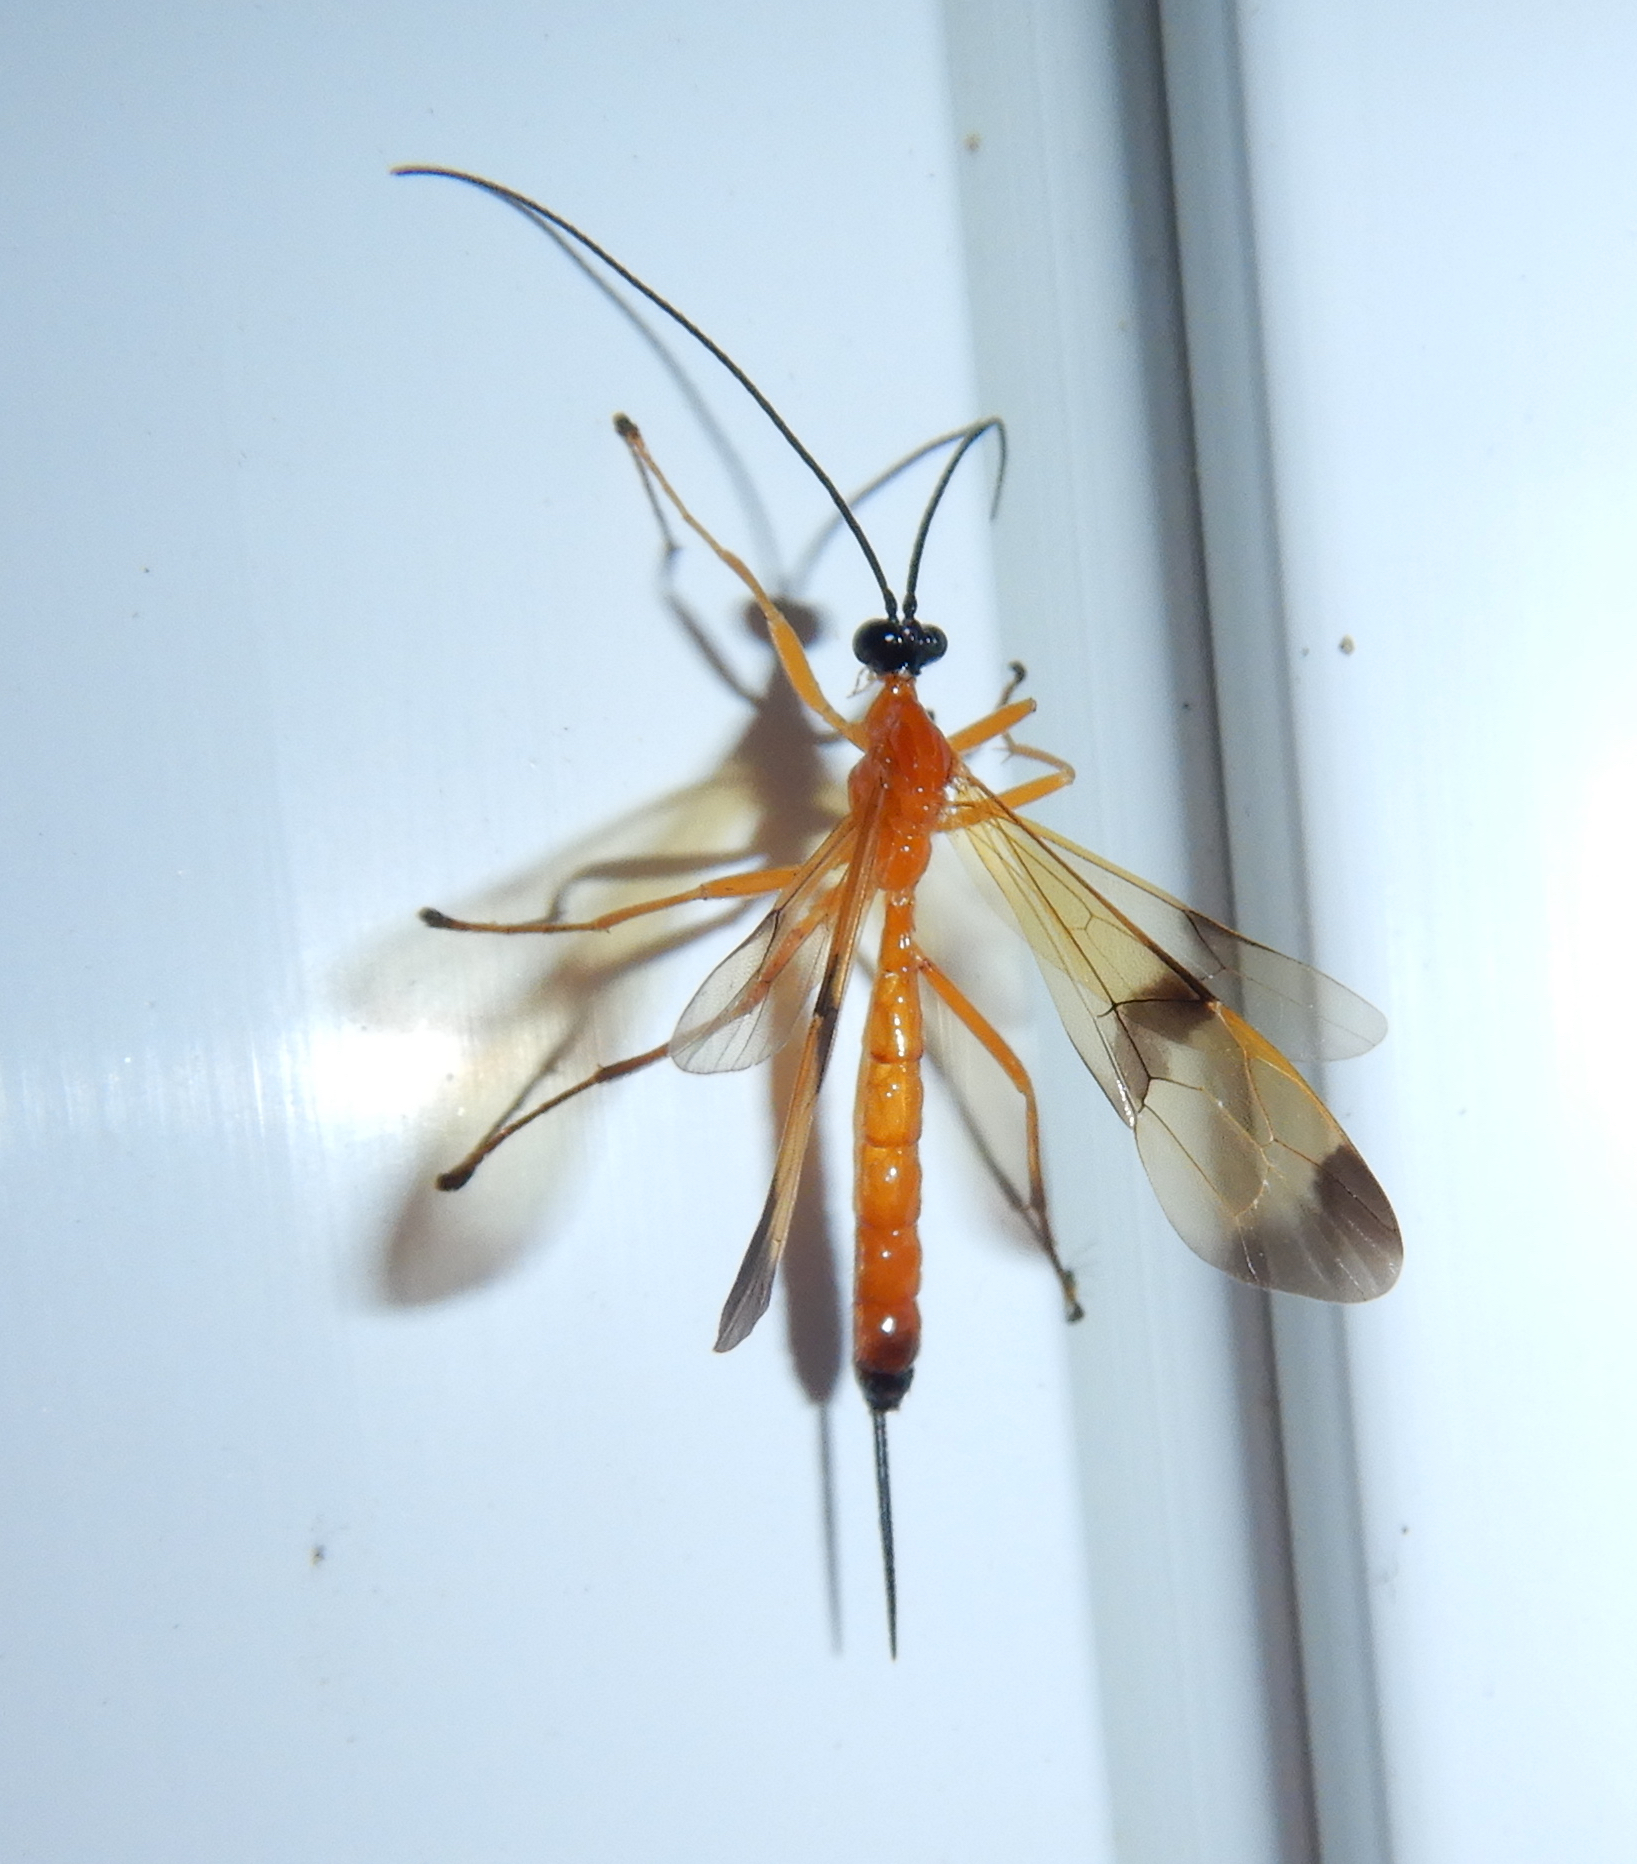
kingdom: Animalia
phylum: Arthropoda
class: Insecta
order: Hymenoptera
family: Ichneumonidae
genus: Acrotaphus
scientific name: Acrotaphus wiltii
